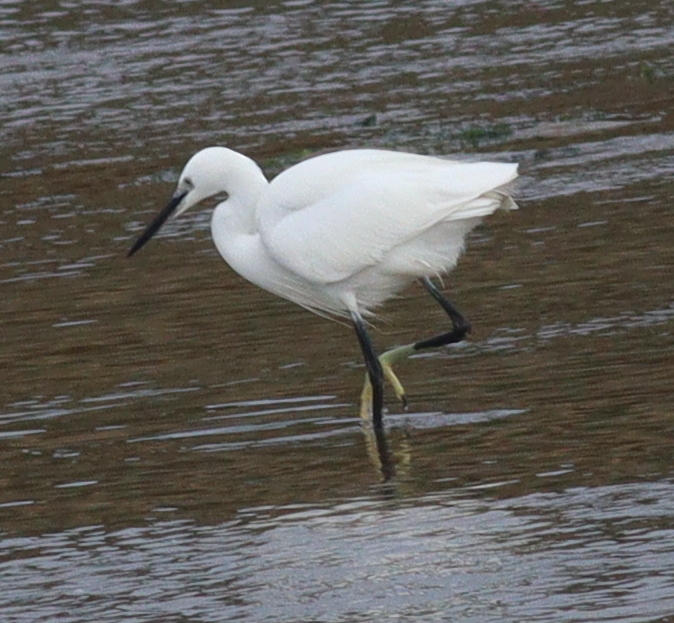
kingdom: Animalia
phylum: Chordata
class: Aves
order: Pelecaniformes
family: Ardeidae
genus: Egretta
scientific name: Egretta garzetta
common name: Little egret
